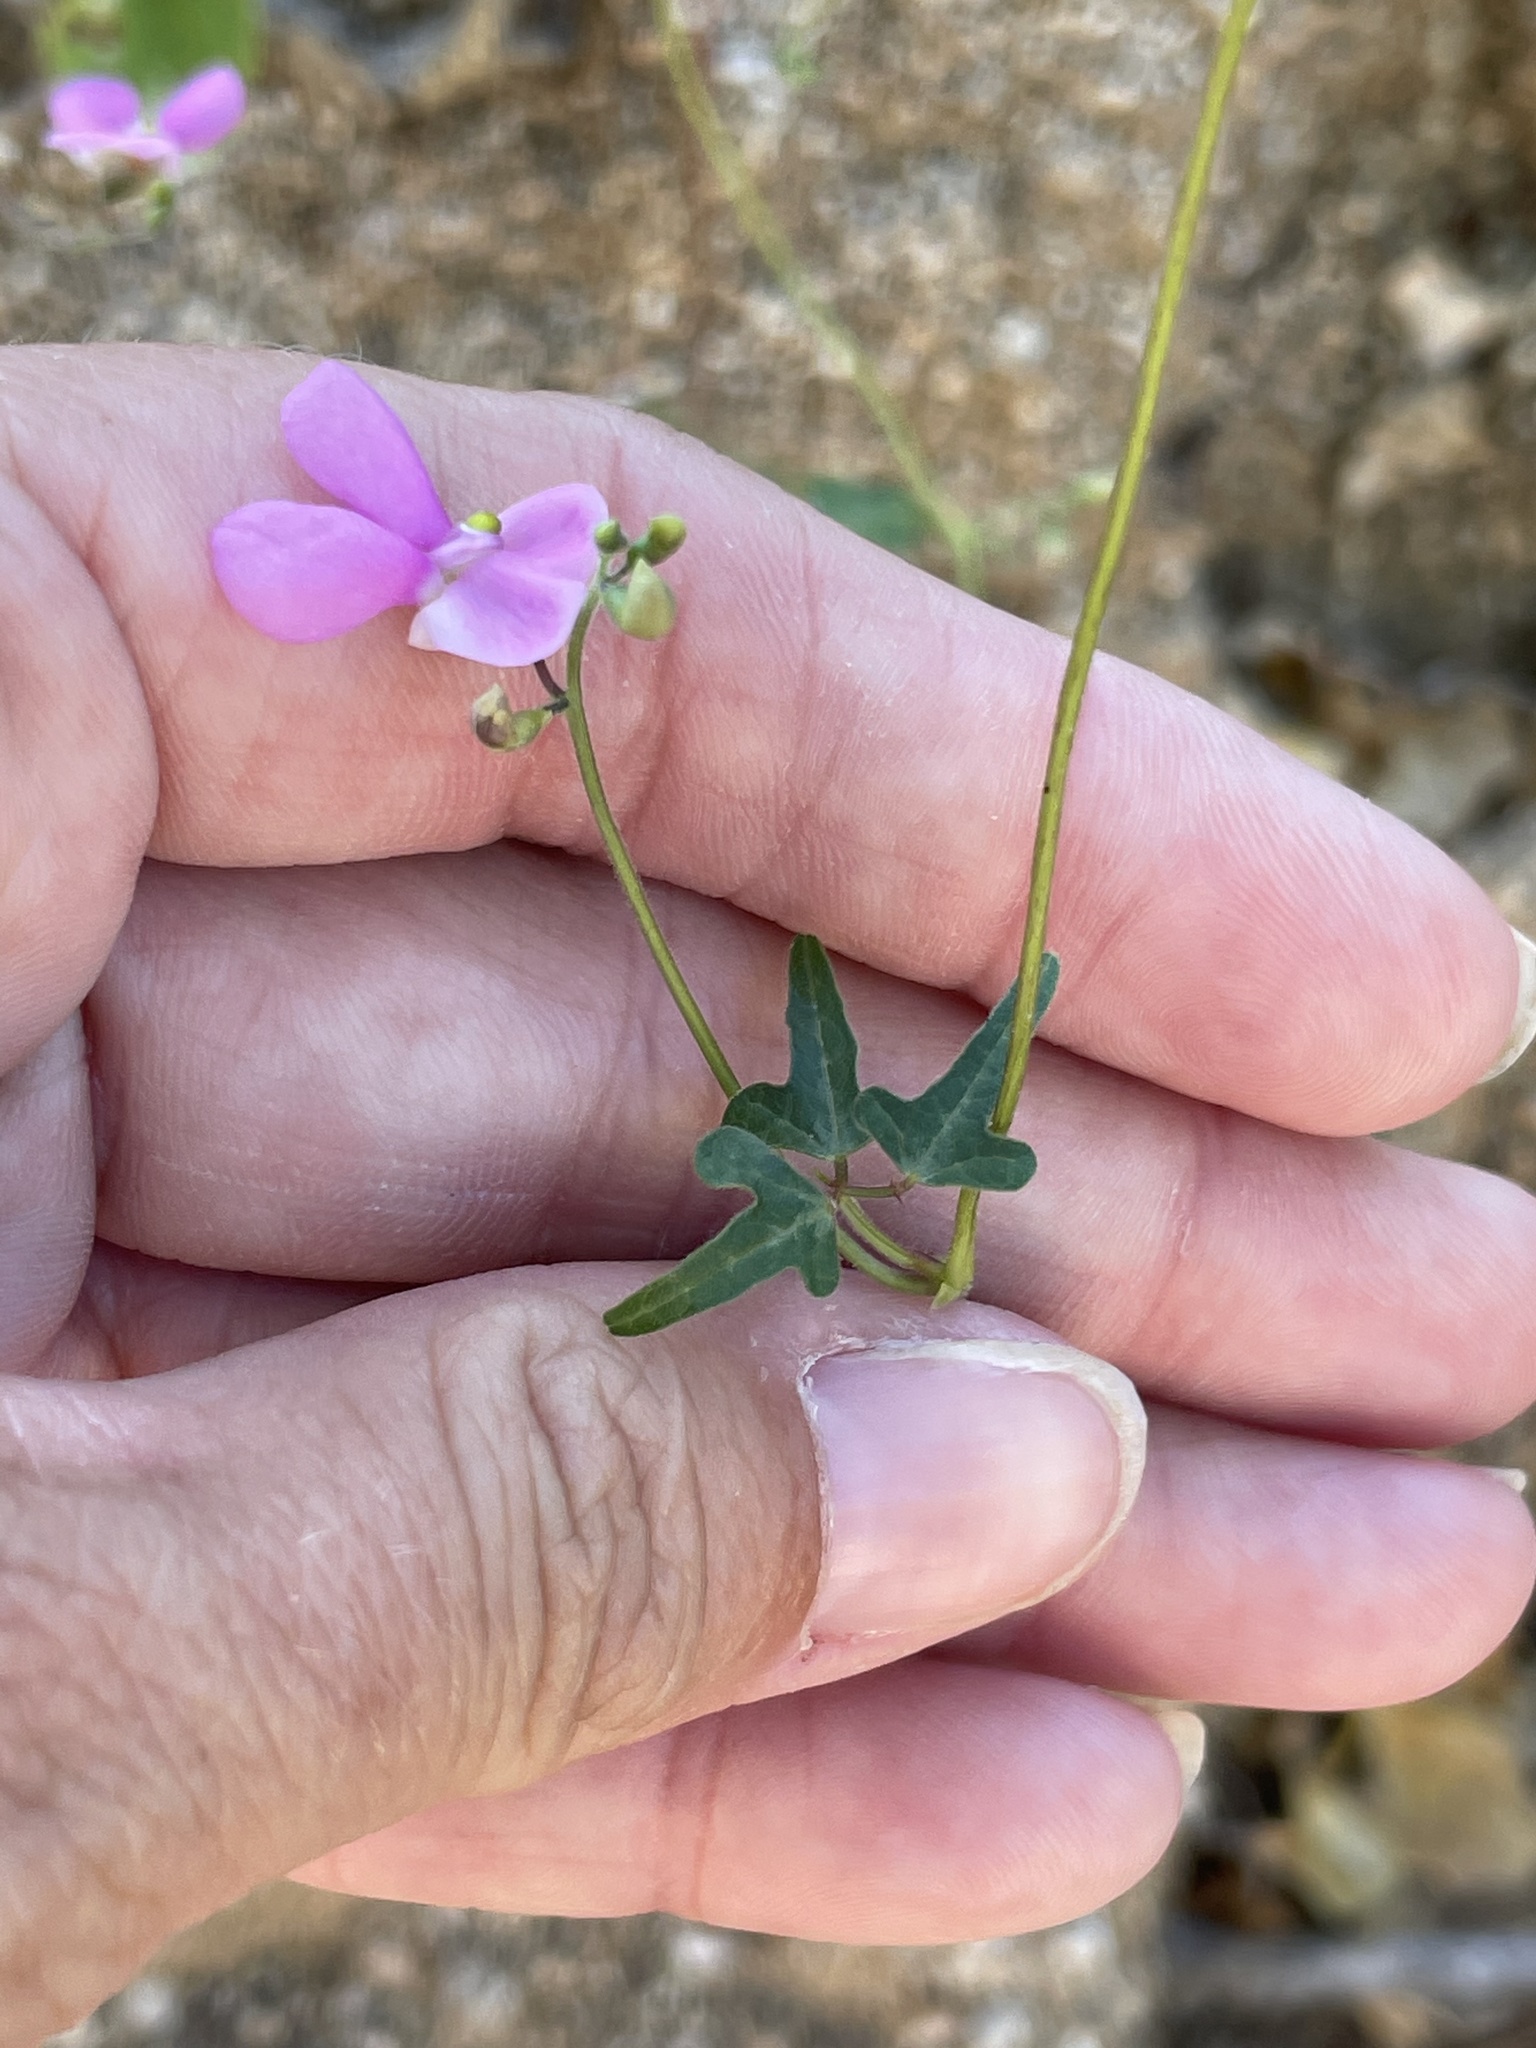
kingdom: Plantae
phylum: Tracheophyta
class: Magnoliopsida
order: Fabales
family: Fabaceae
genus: Phaseolus
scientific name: Phaseolus filiformis
